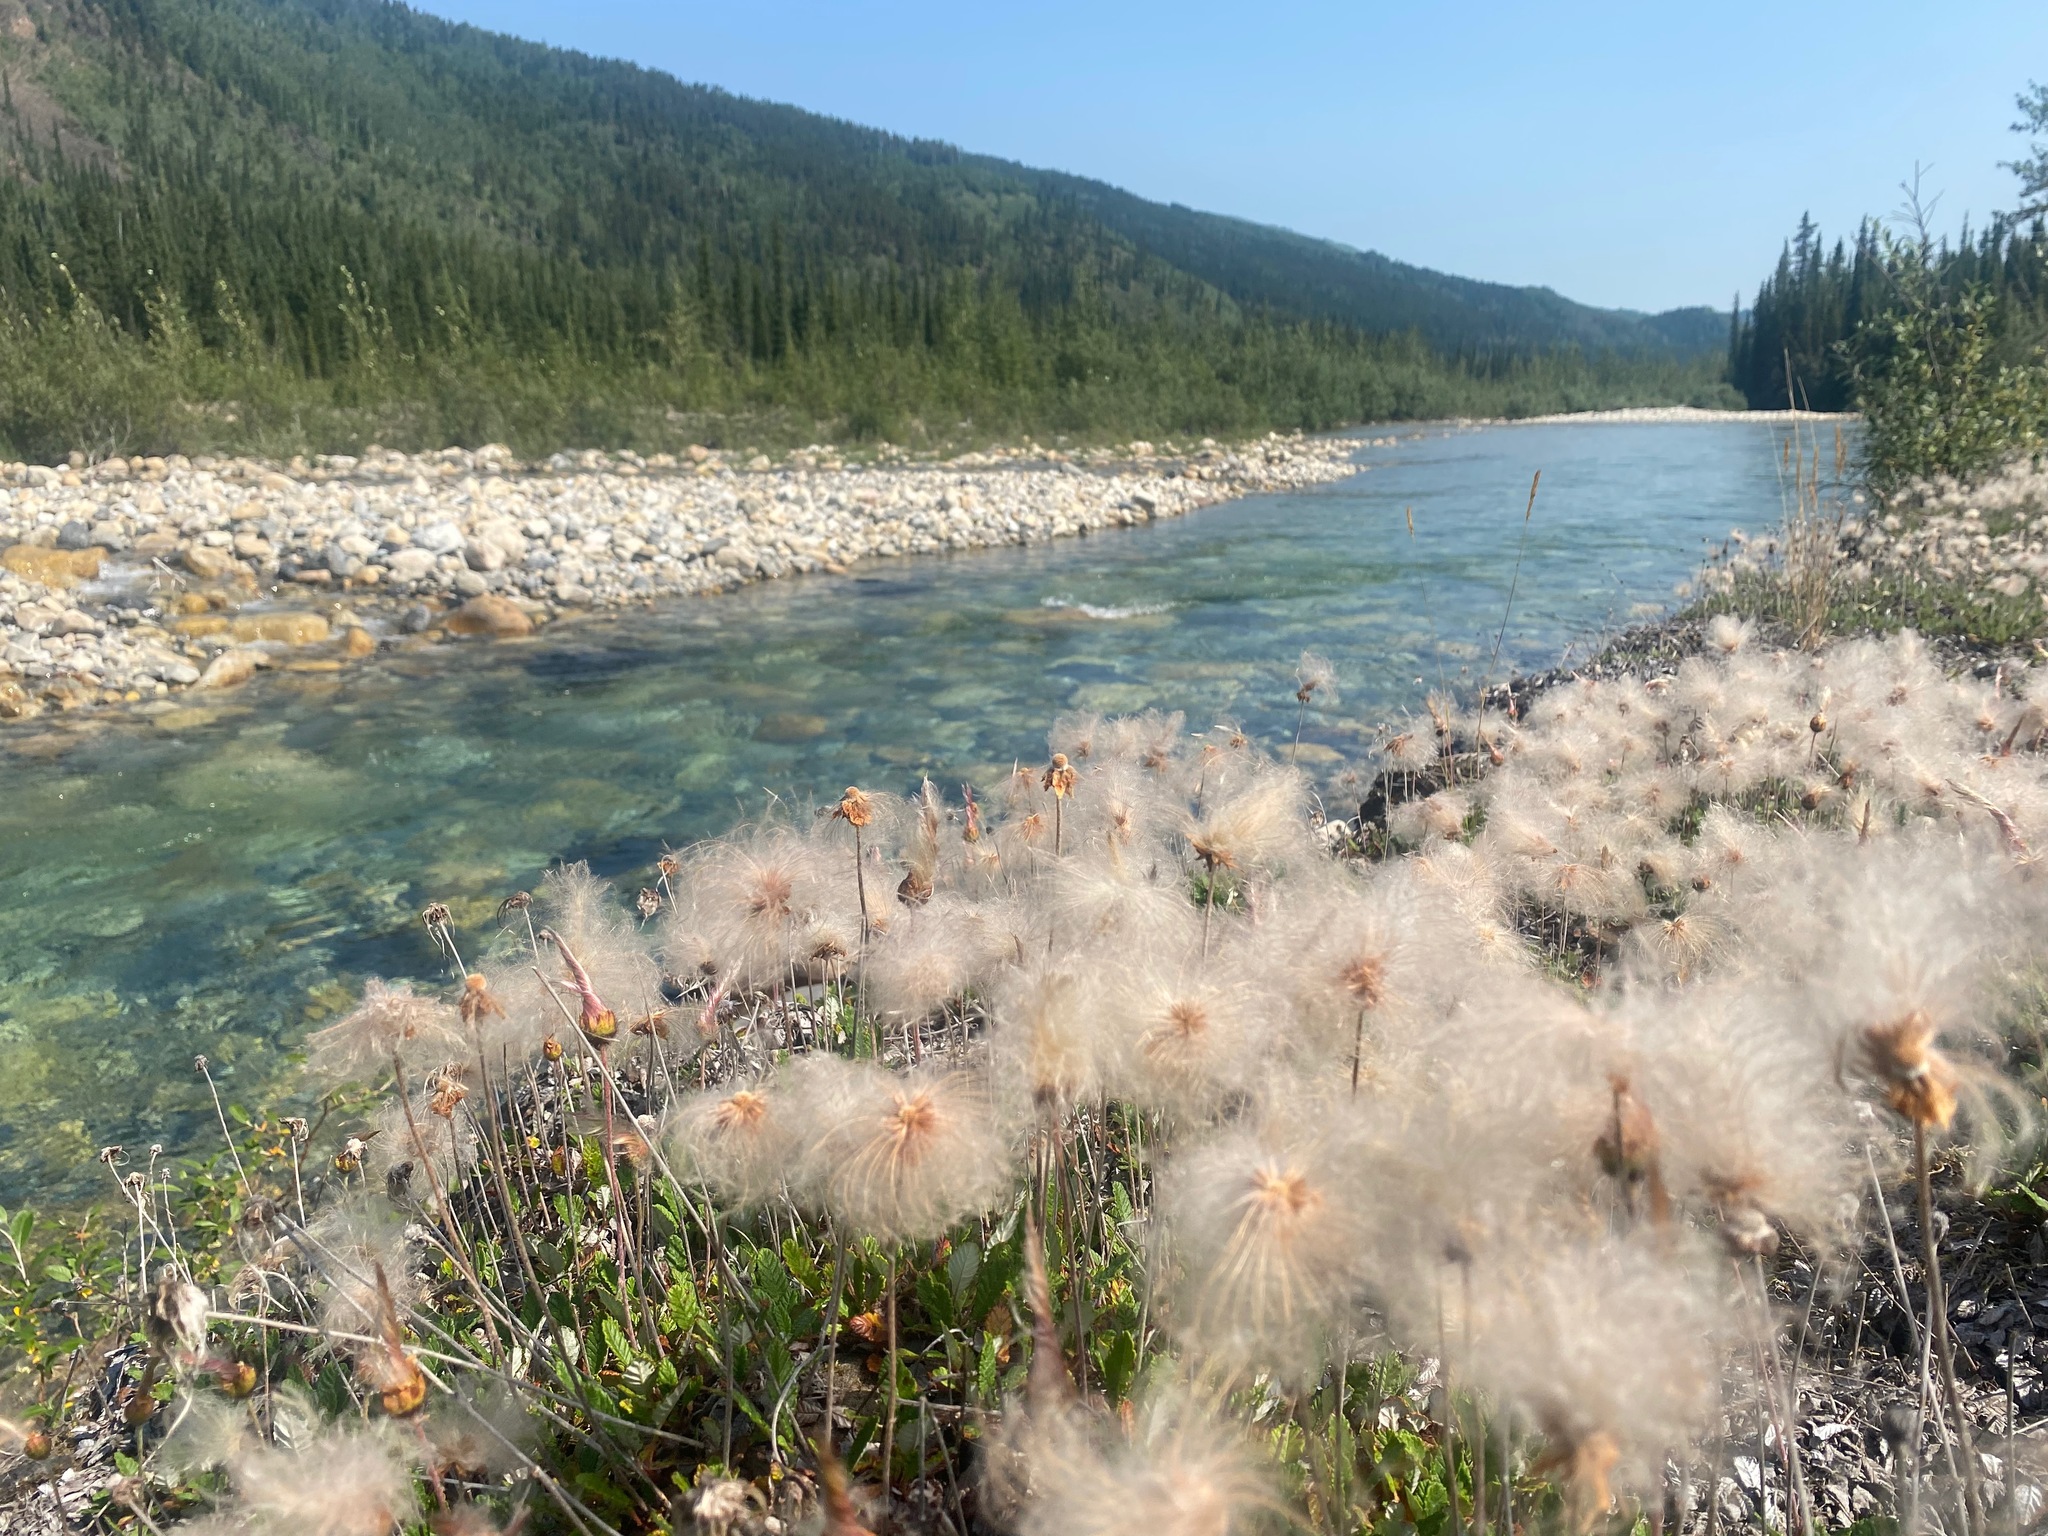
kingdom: Plantae
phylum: Tracheophyta
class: Magnoliopsida
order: Rosales
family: Rosaceae
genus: Dryas
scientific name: Dryas drummondii
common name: Drummond's dryad
